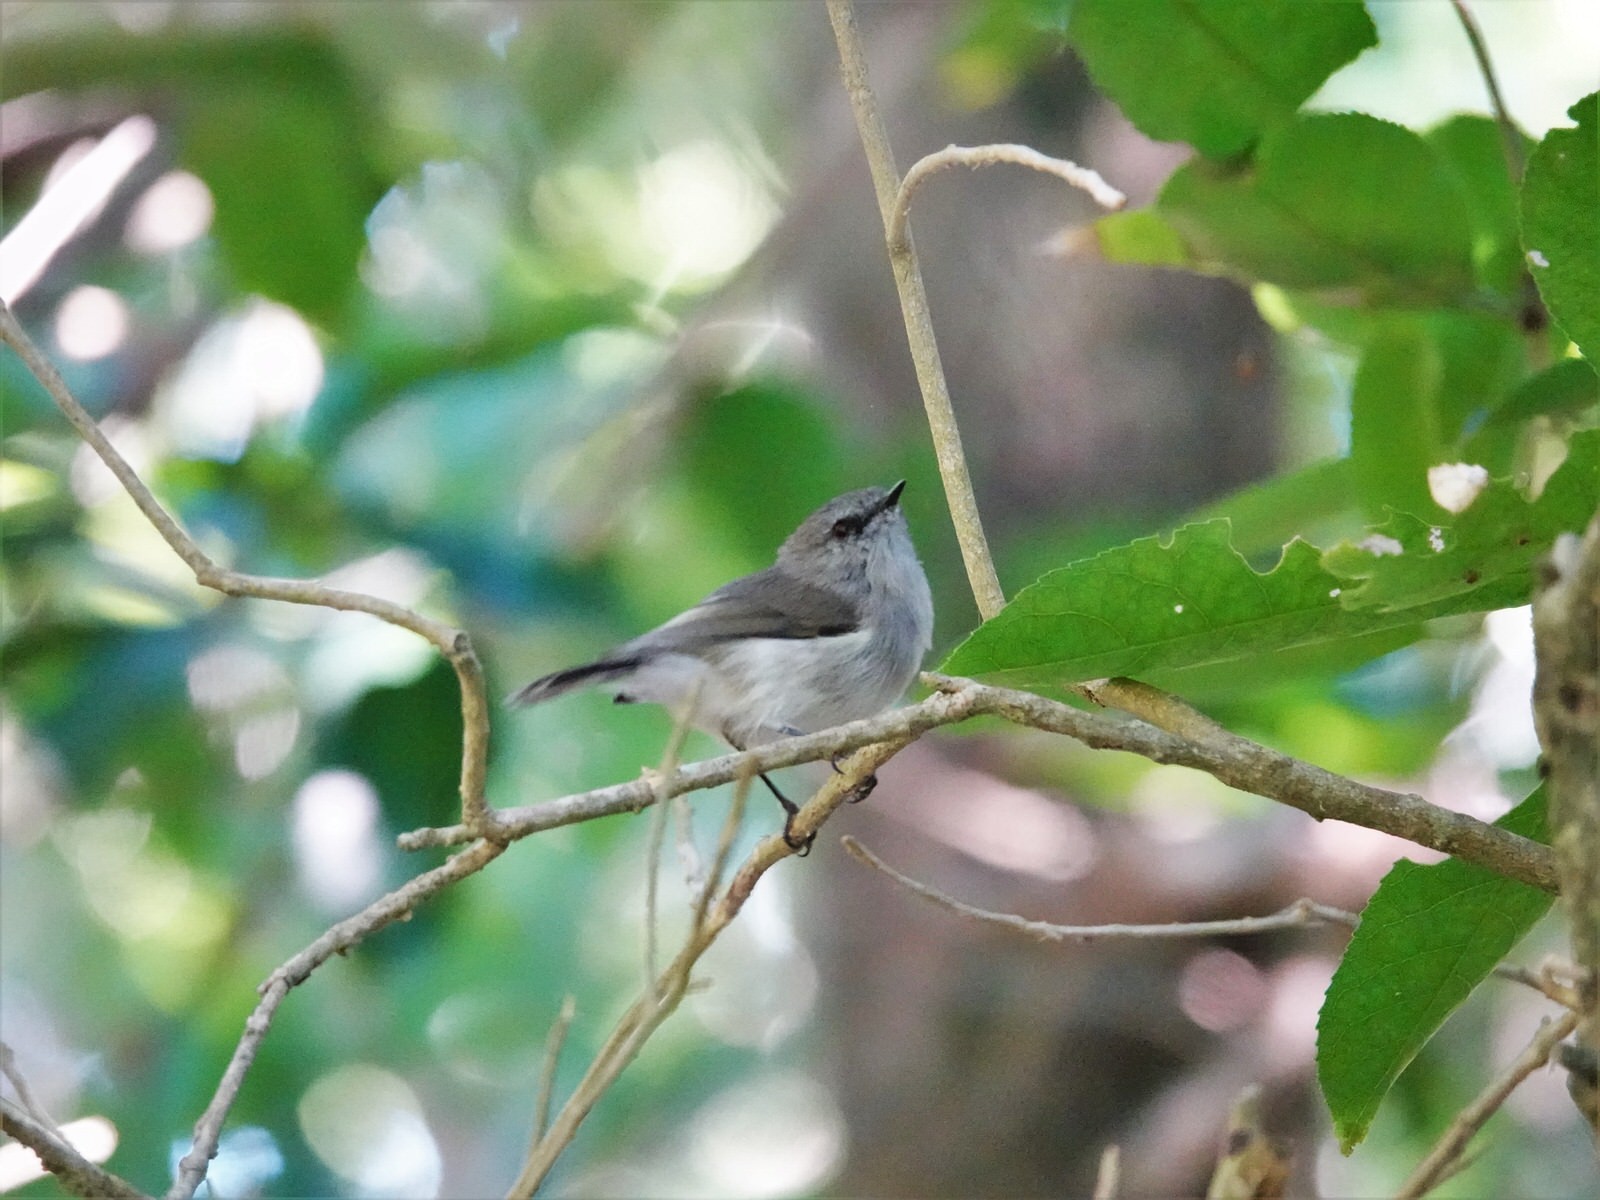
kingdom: Animalia
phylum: Chordata
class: Aves
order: Passeriformes
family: Acanthizidae
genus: Gerygone
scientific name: Gerygone igata
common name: Grey gerygone
